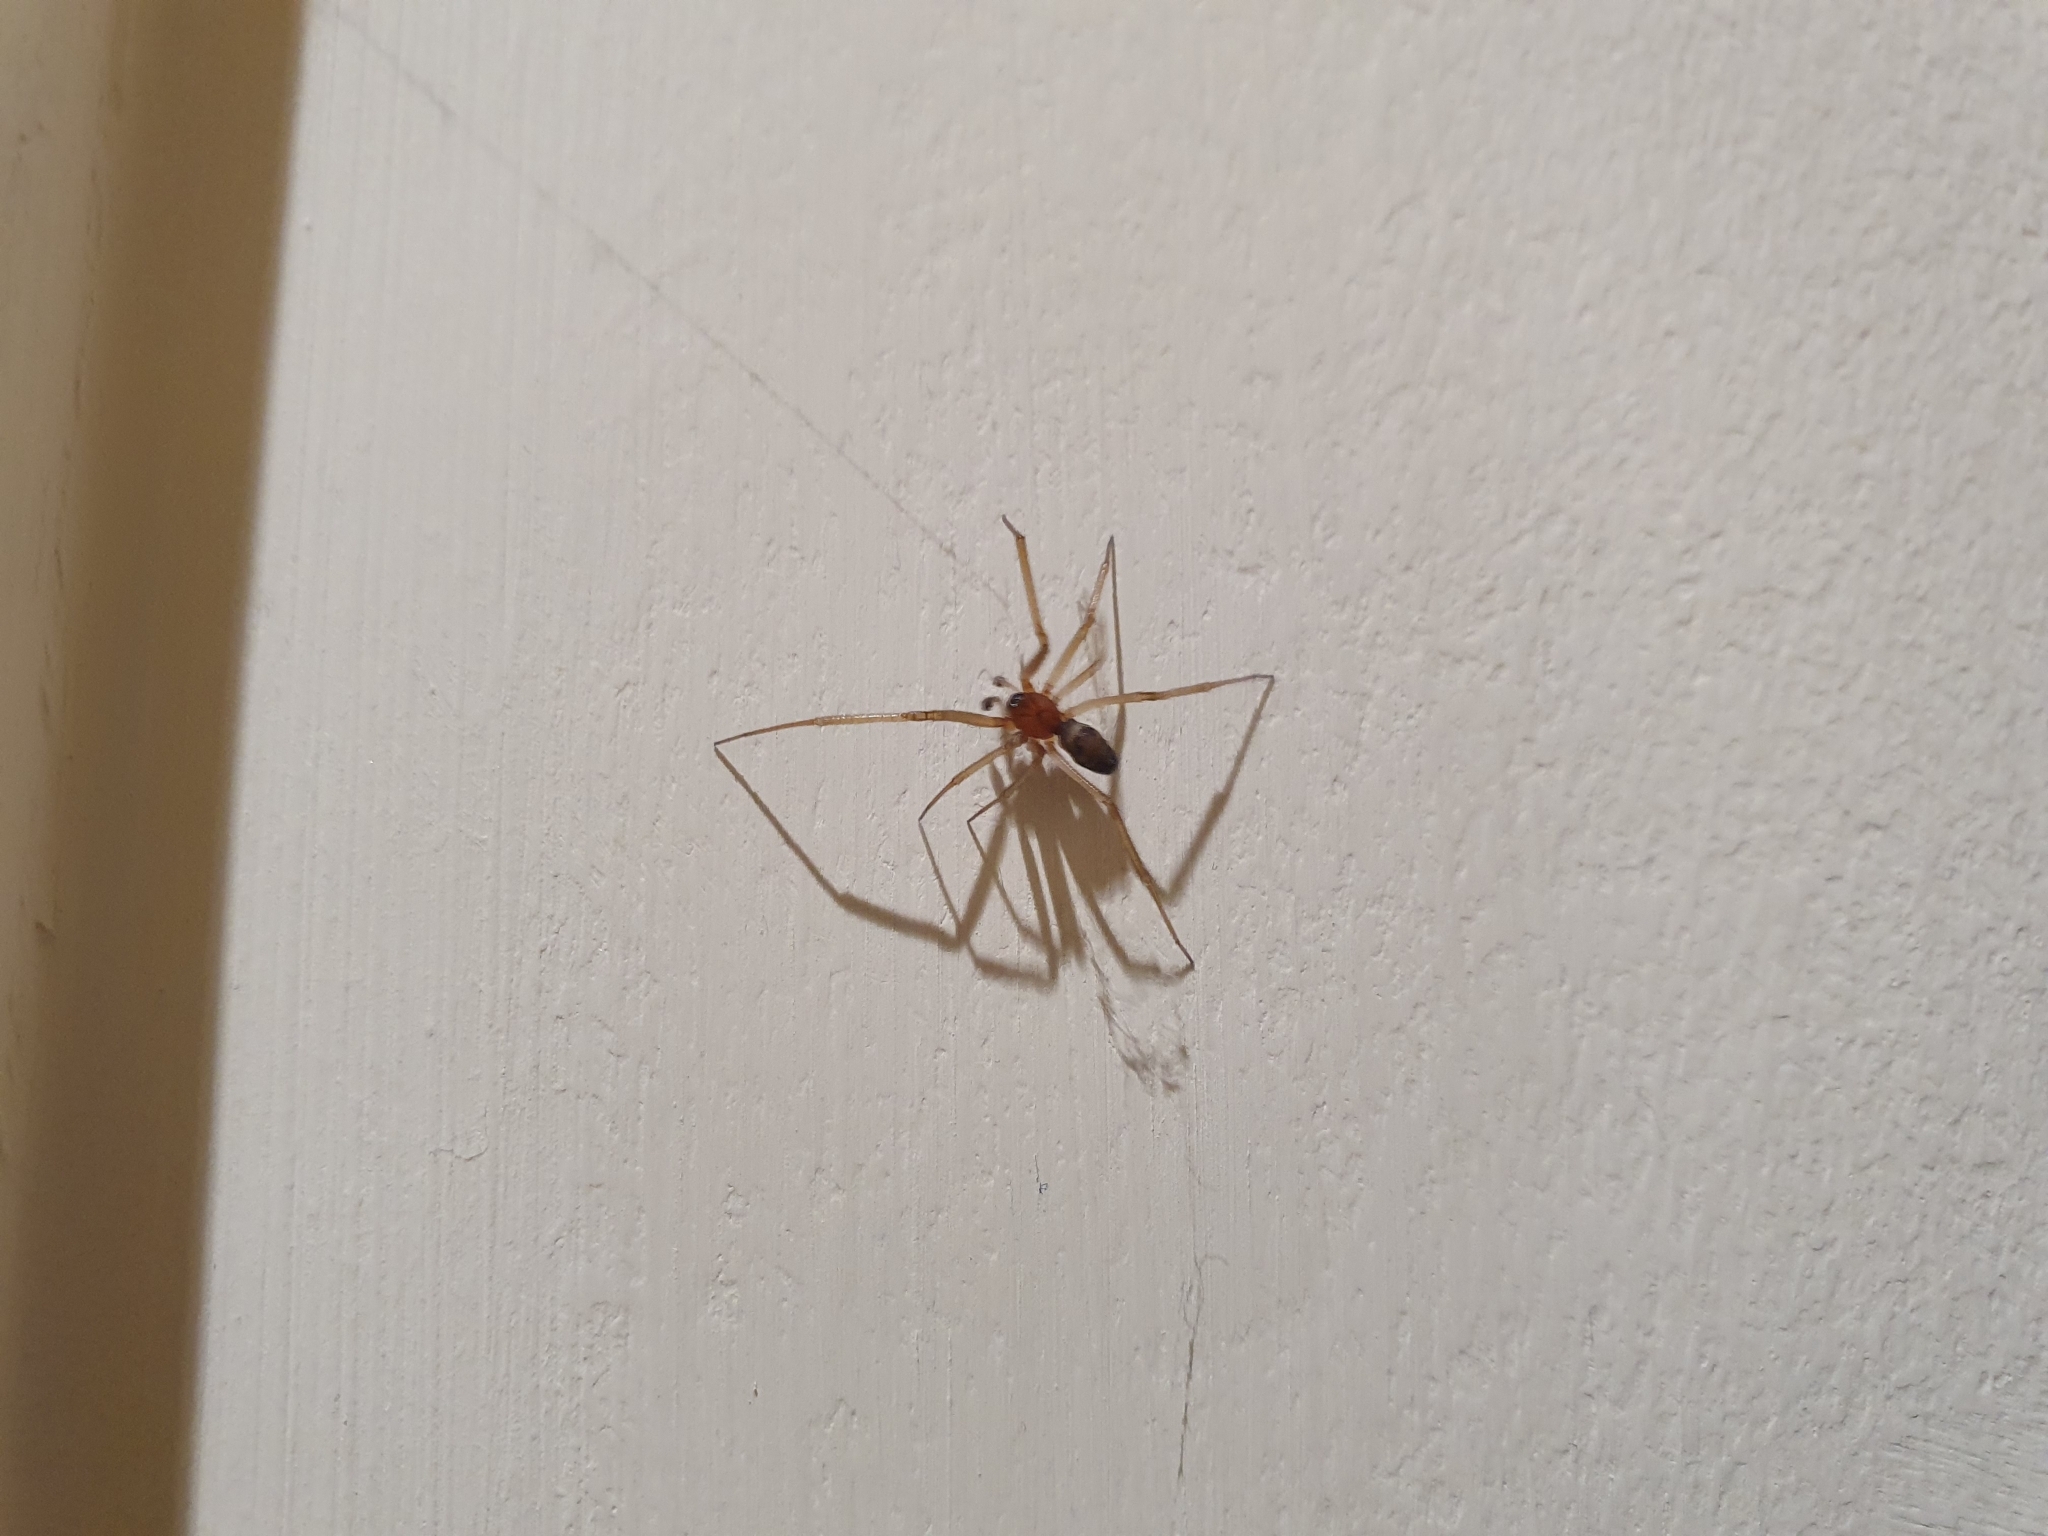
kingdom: Animalia
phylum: Arthropoda
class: Arachnida
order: Araneae
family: Theridiidae
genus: Steatoda
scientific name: Steatoda grossa
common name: False black widow
